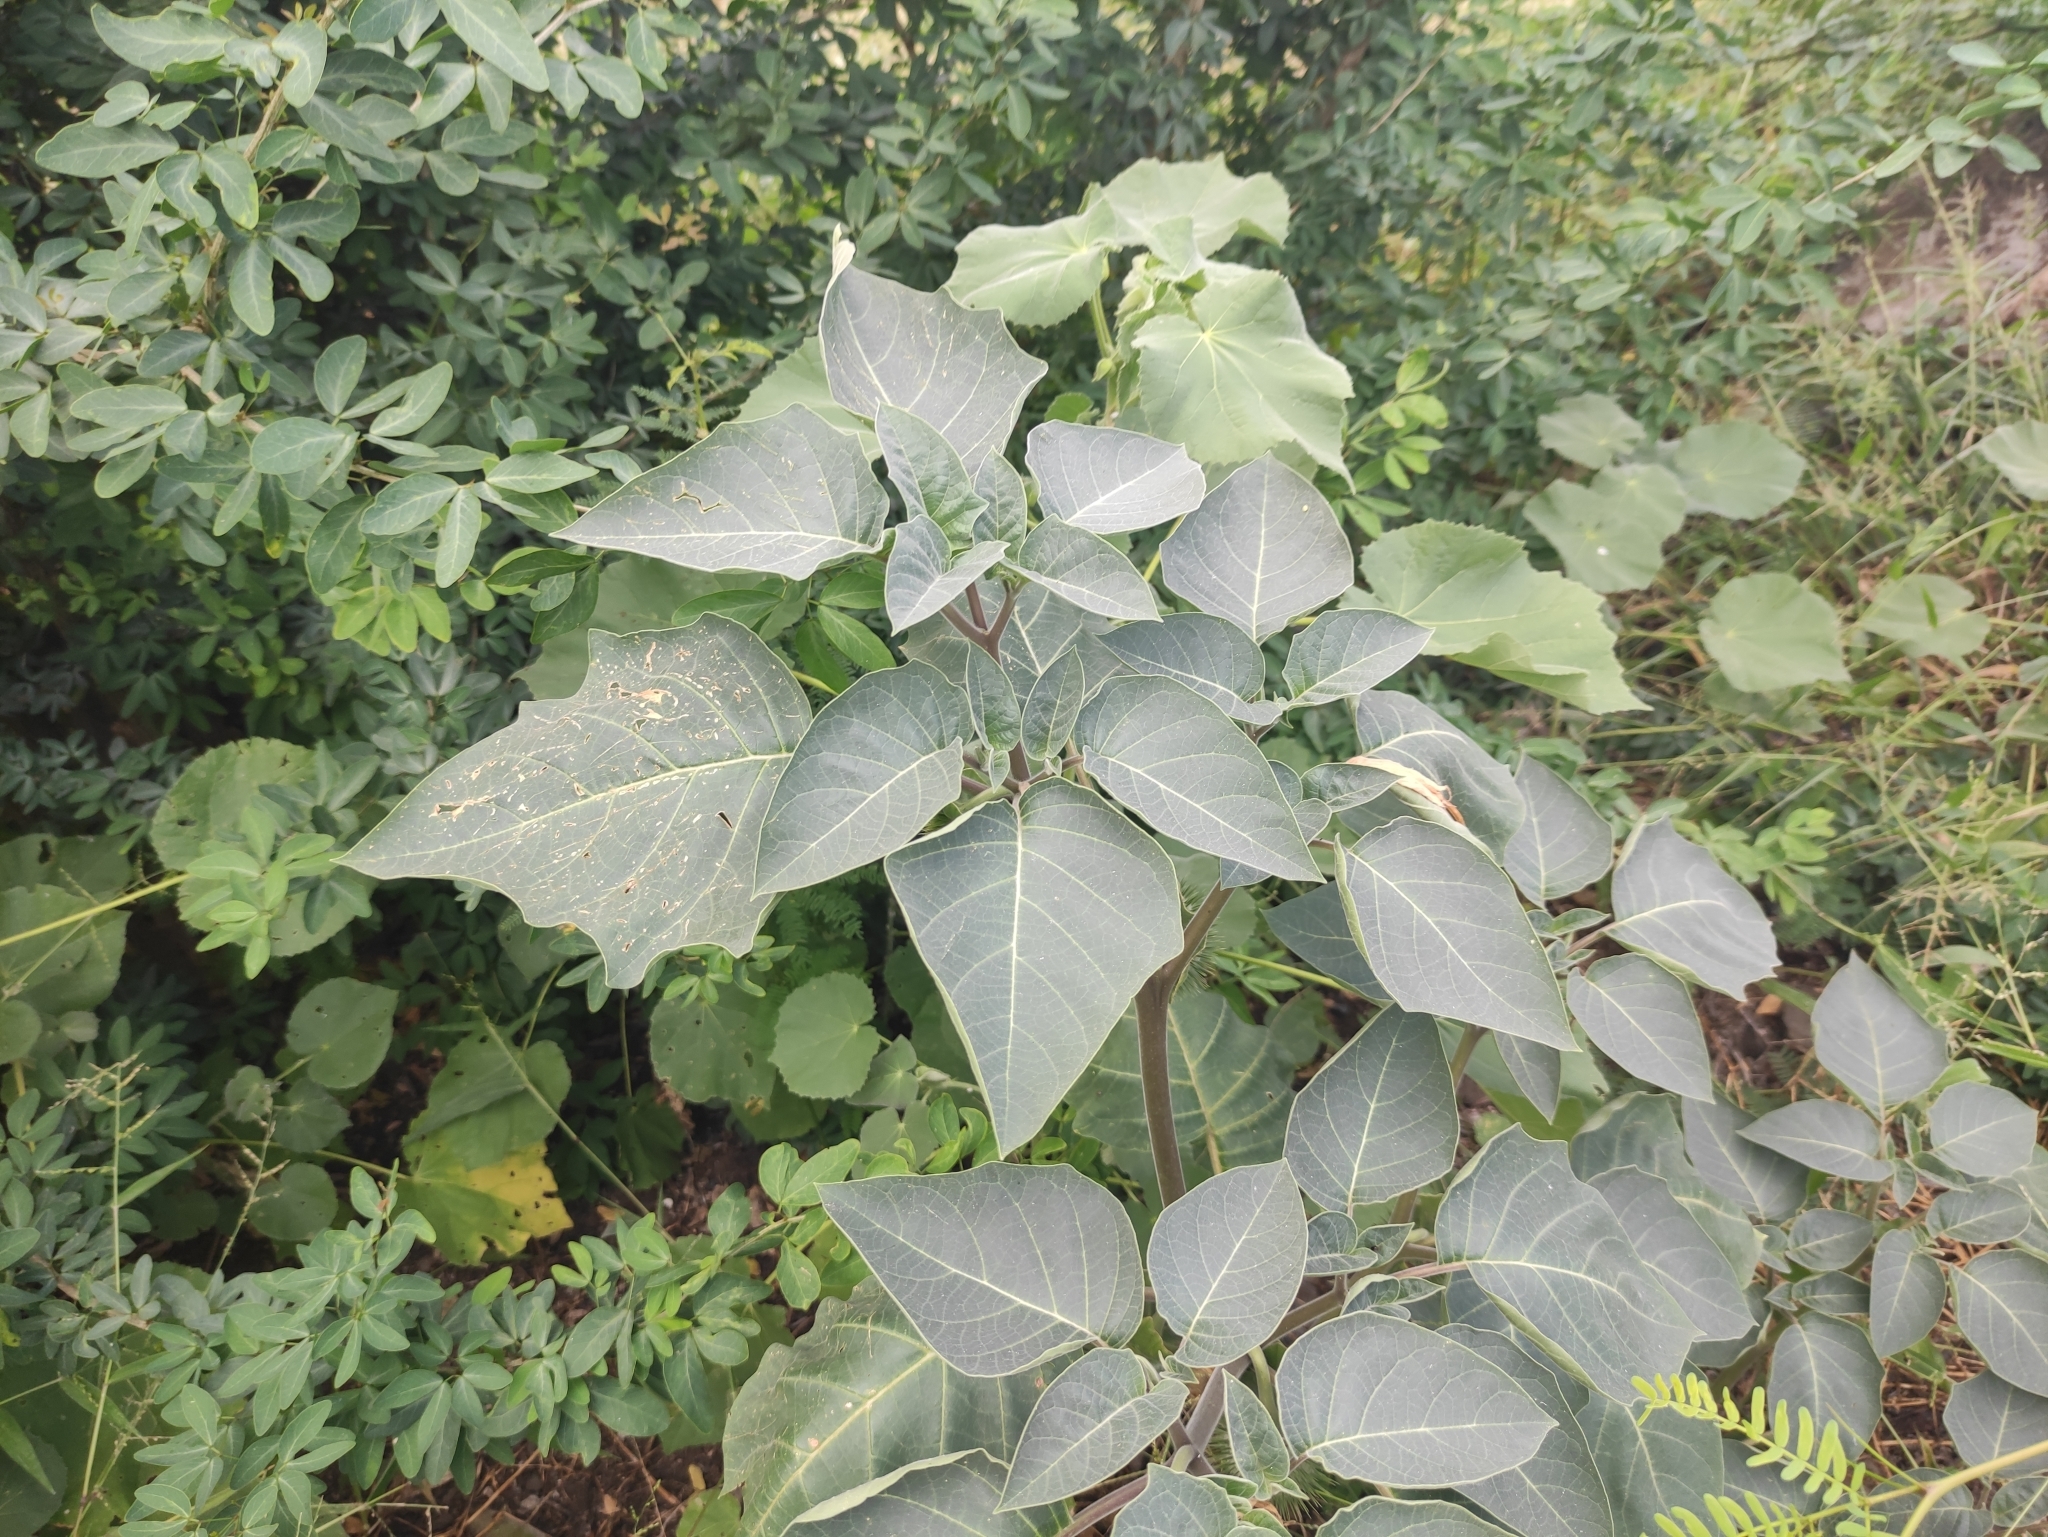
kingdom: Plantae
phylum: Tracheophyta
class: Magnoliopsida
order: Solanales
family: Solanaceae
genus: Datura
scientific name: Datura innoxia
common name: Downy thorn-apple
